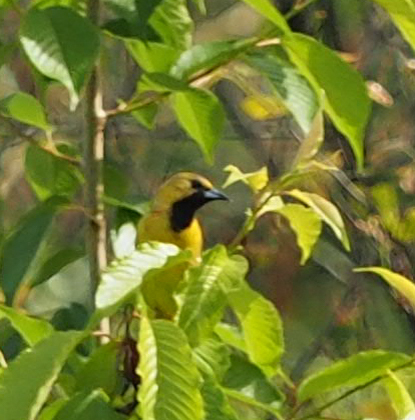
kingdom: Animalia
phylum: Chordata
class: Aves
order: Passeriformes
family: Icteridae
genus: Icterus
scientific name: Icterus spurius
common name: Orchard oriole
